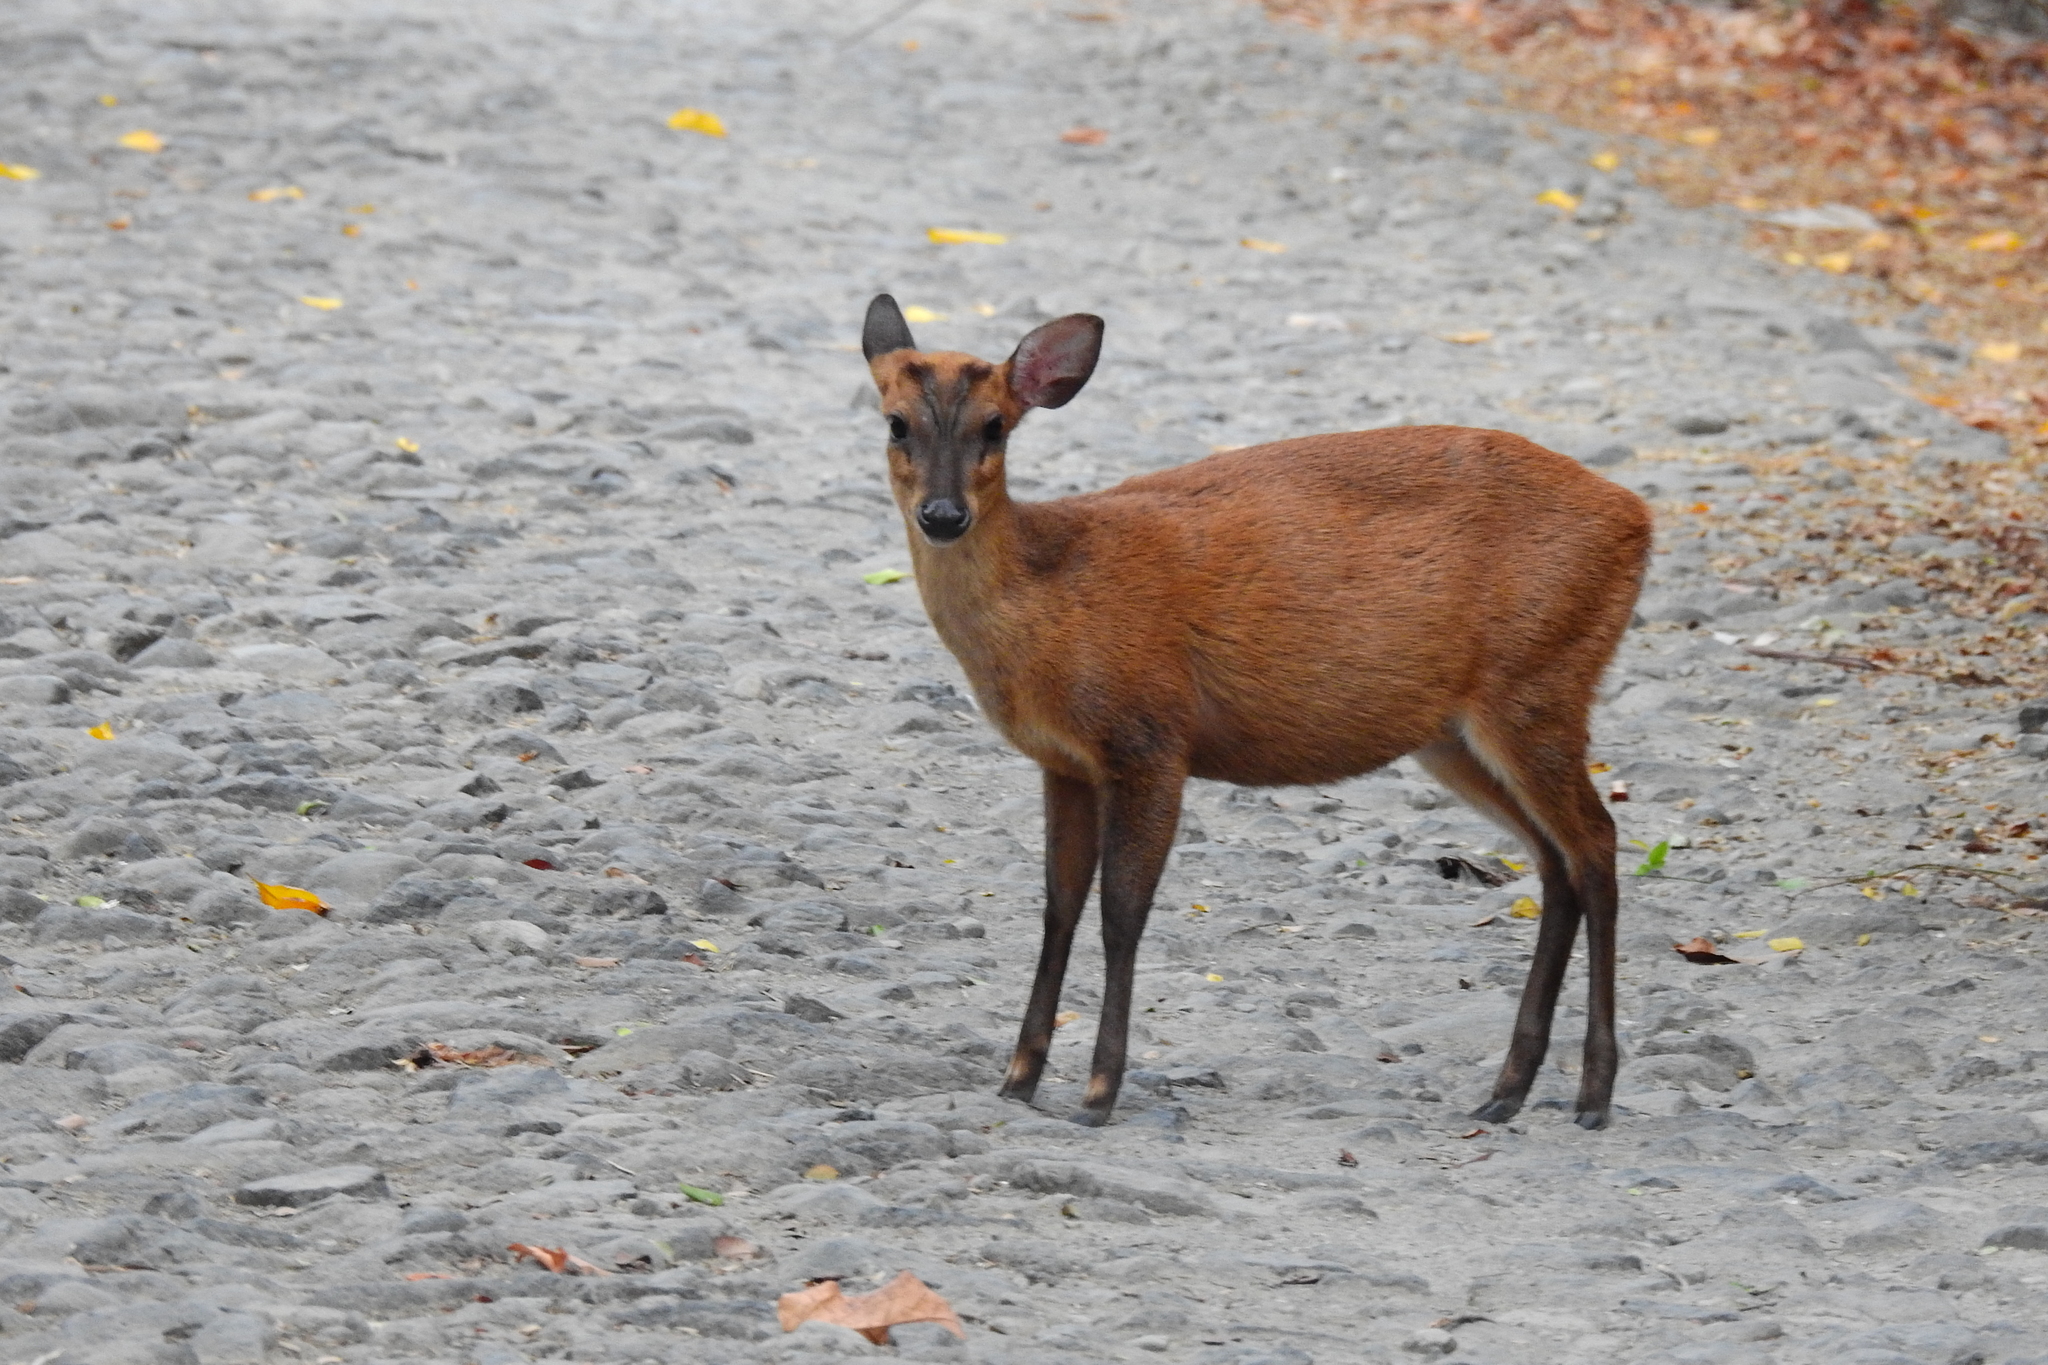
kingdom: Animalia
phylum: Chordata
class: Mammalia
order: Artiodactyla
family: Cervidae
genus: Muntiacus
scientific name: Muntiacus muntjak
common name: Indian muntjac
